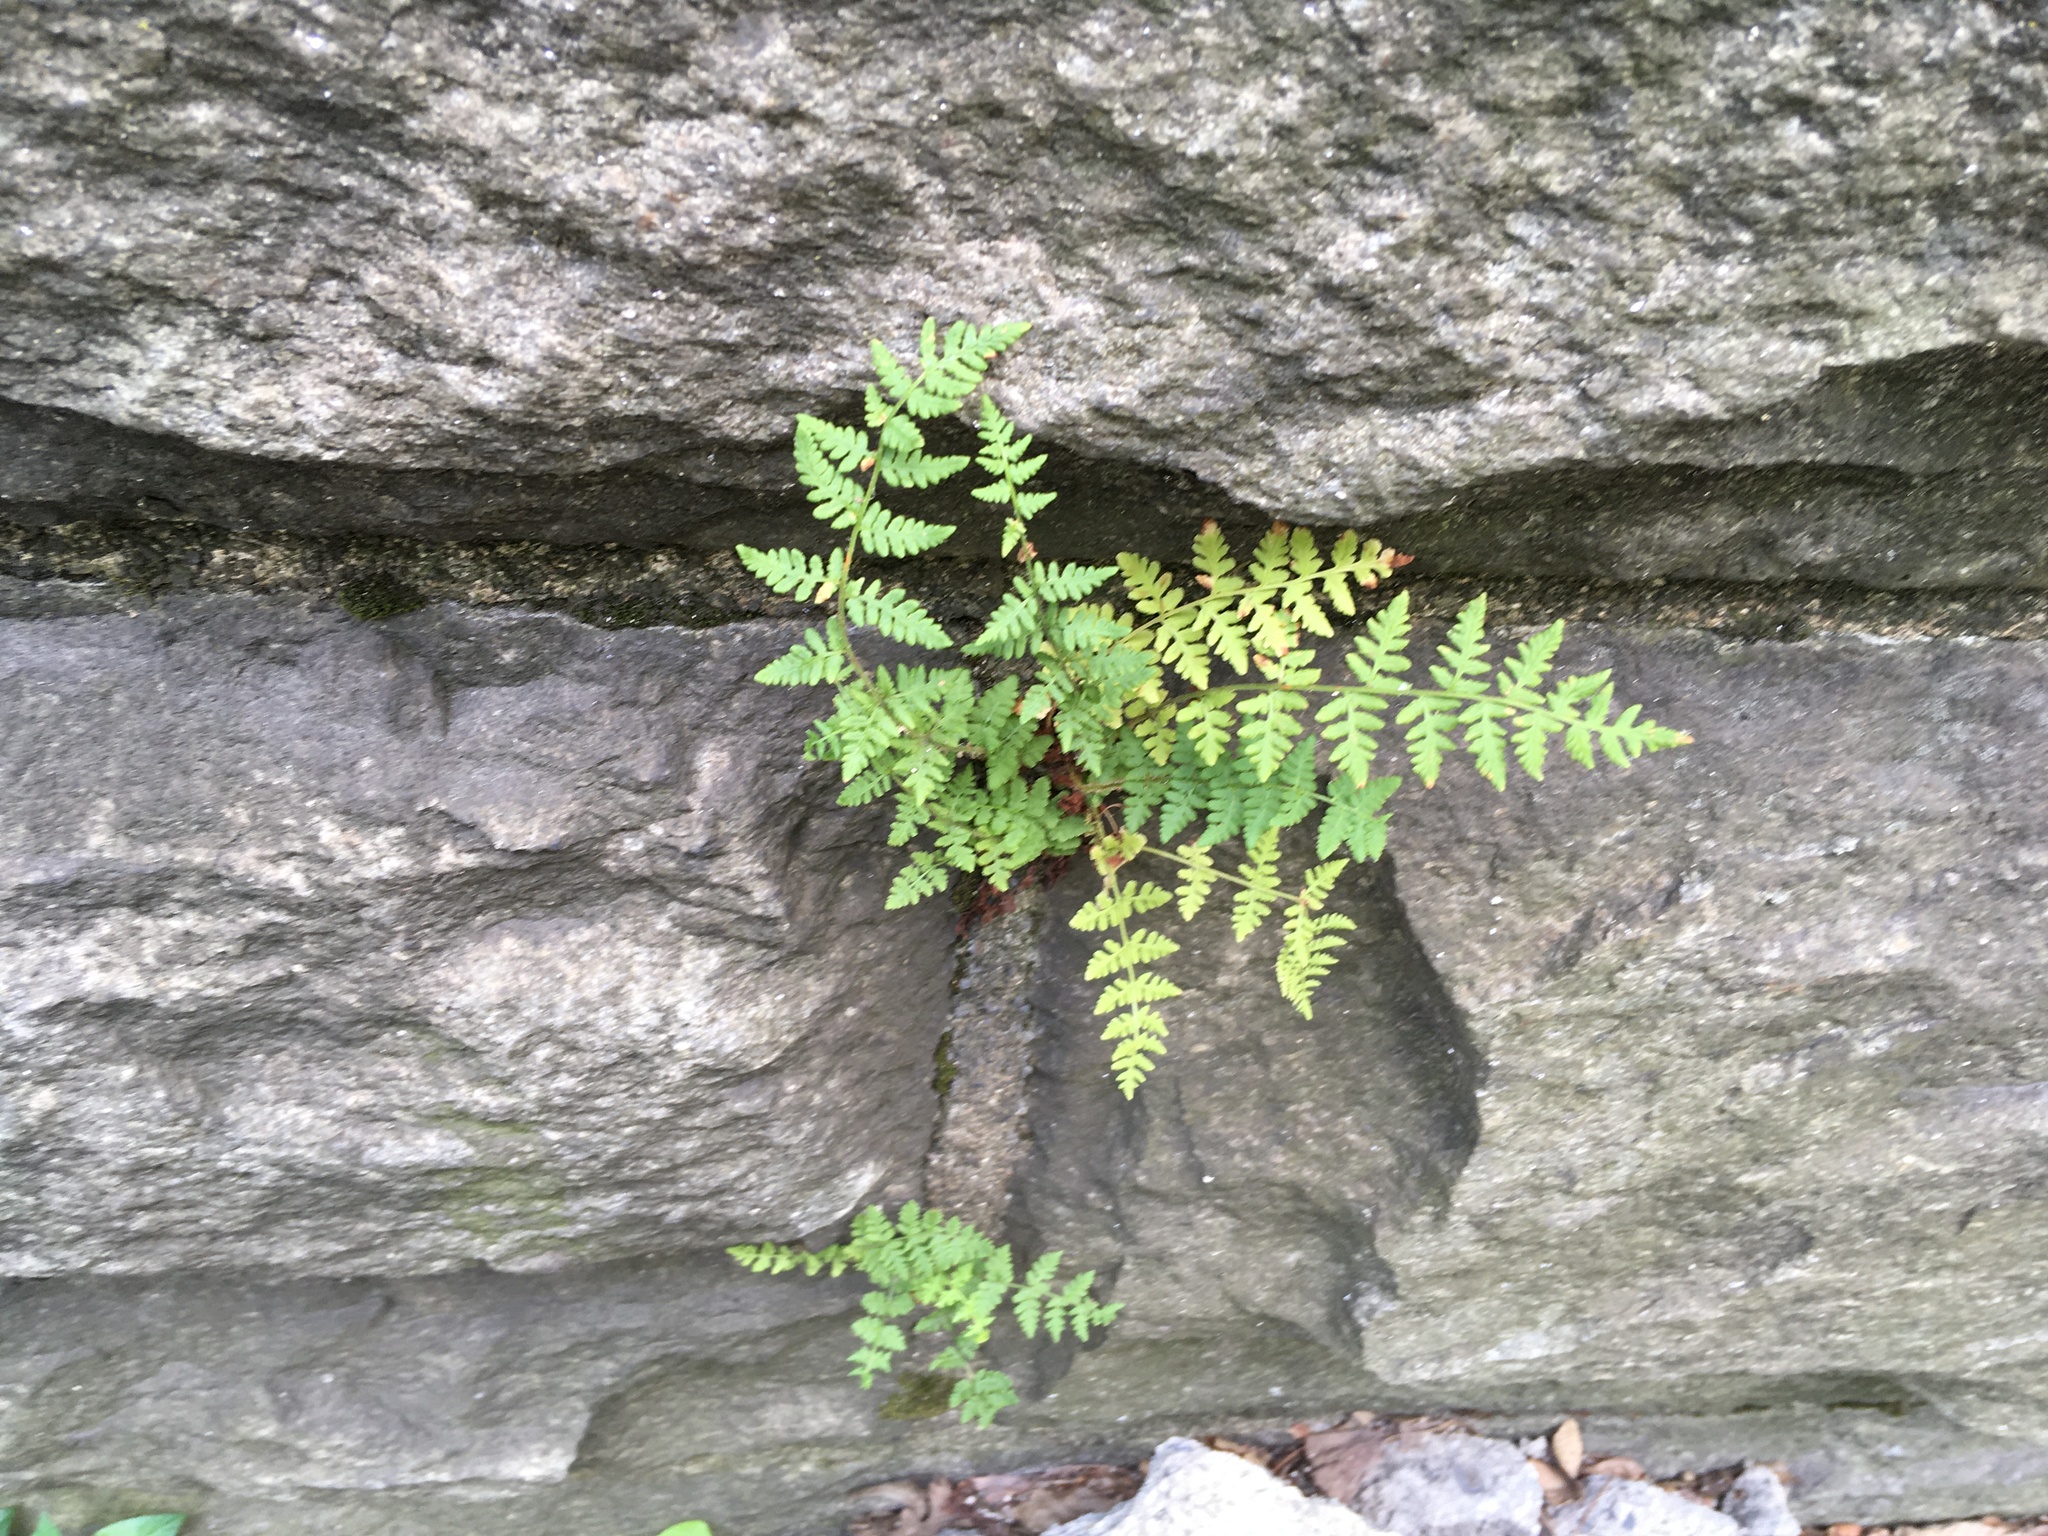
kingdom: Plantae
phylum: Tracheophyta
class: Polypodiopsida
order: Polypodiales
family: Woodsiaceae
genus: Physematium
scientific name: Physematium obtusum
